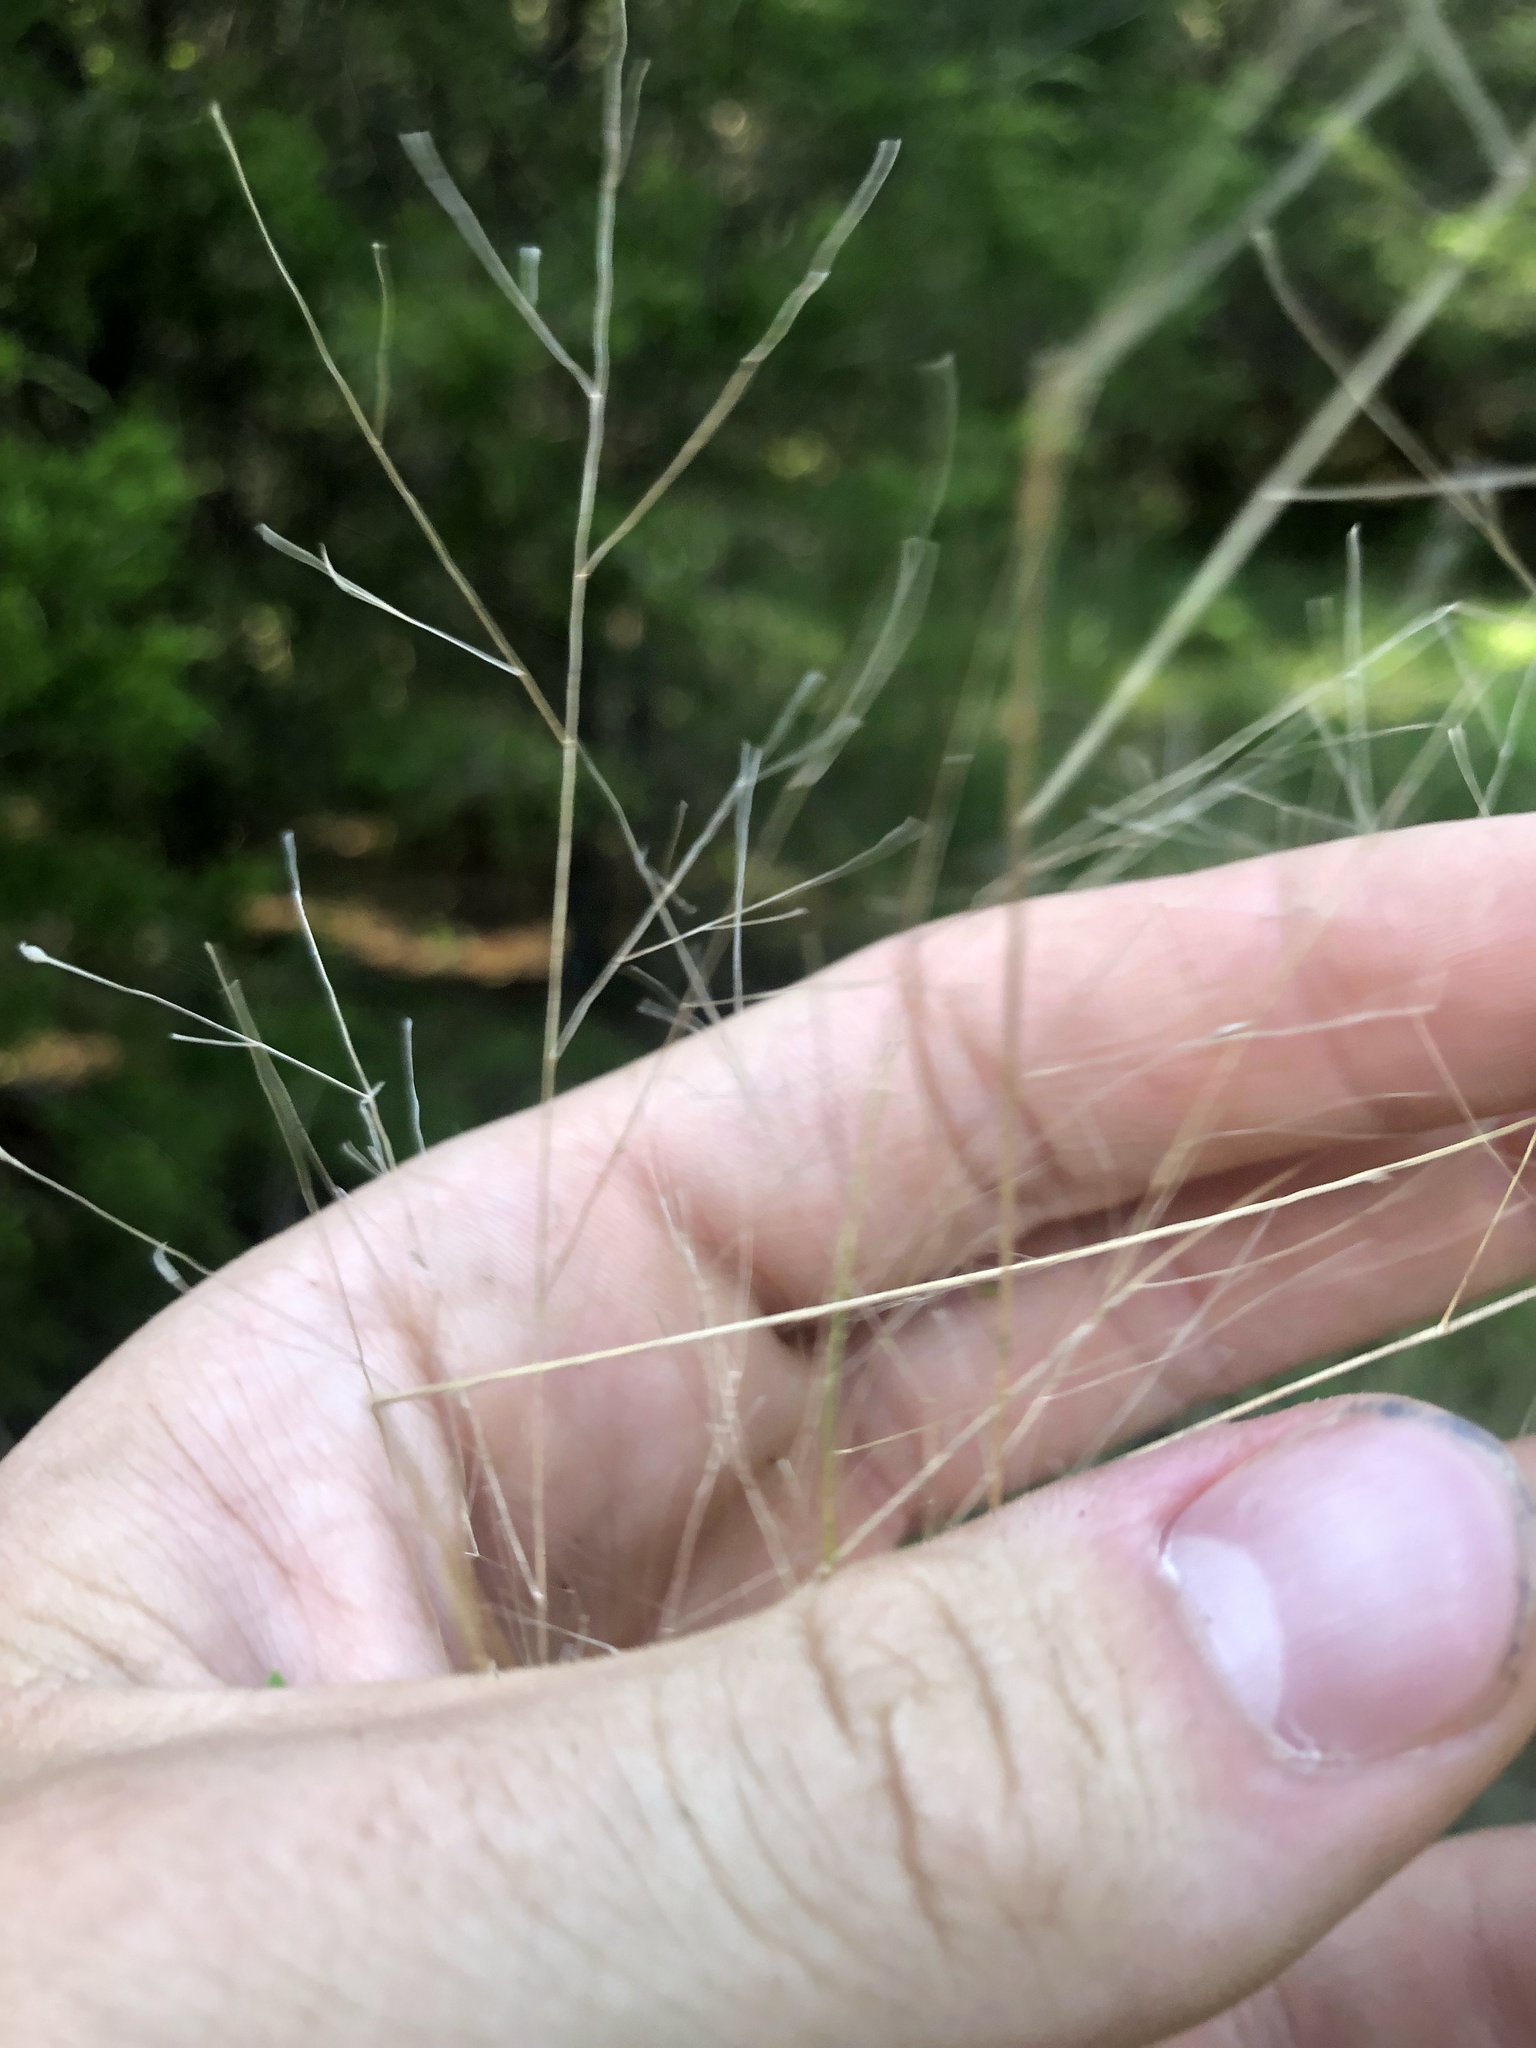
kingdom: Plantae
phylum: Tracheophyta
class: Liliopsida
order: Poales
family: Poaceae
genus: Panicum
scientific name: Panicum flexile
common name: Wiry panicgrass
